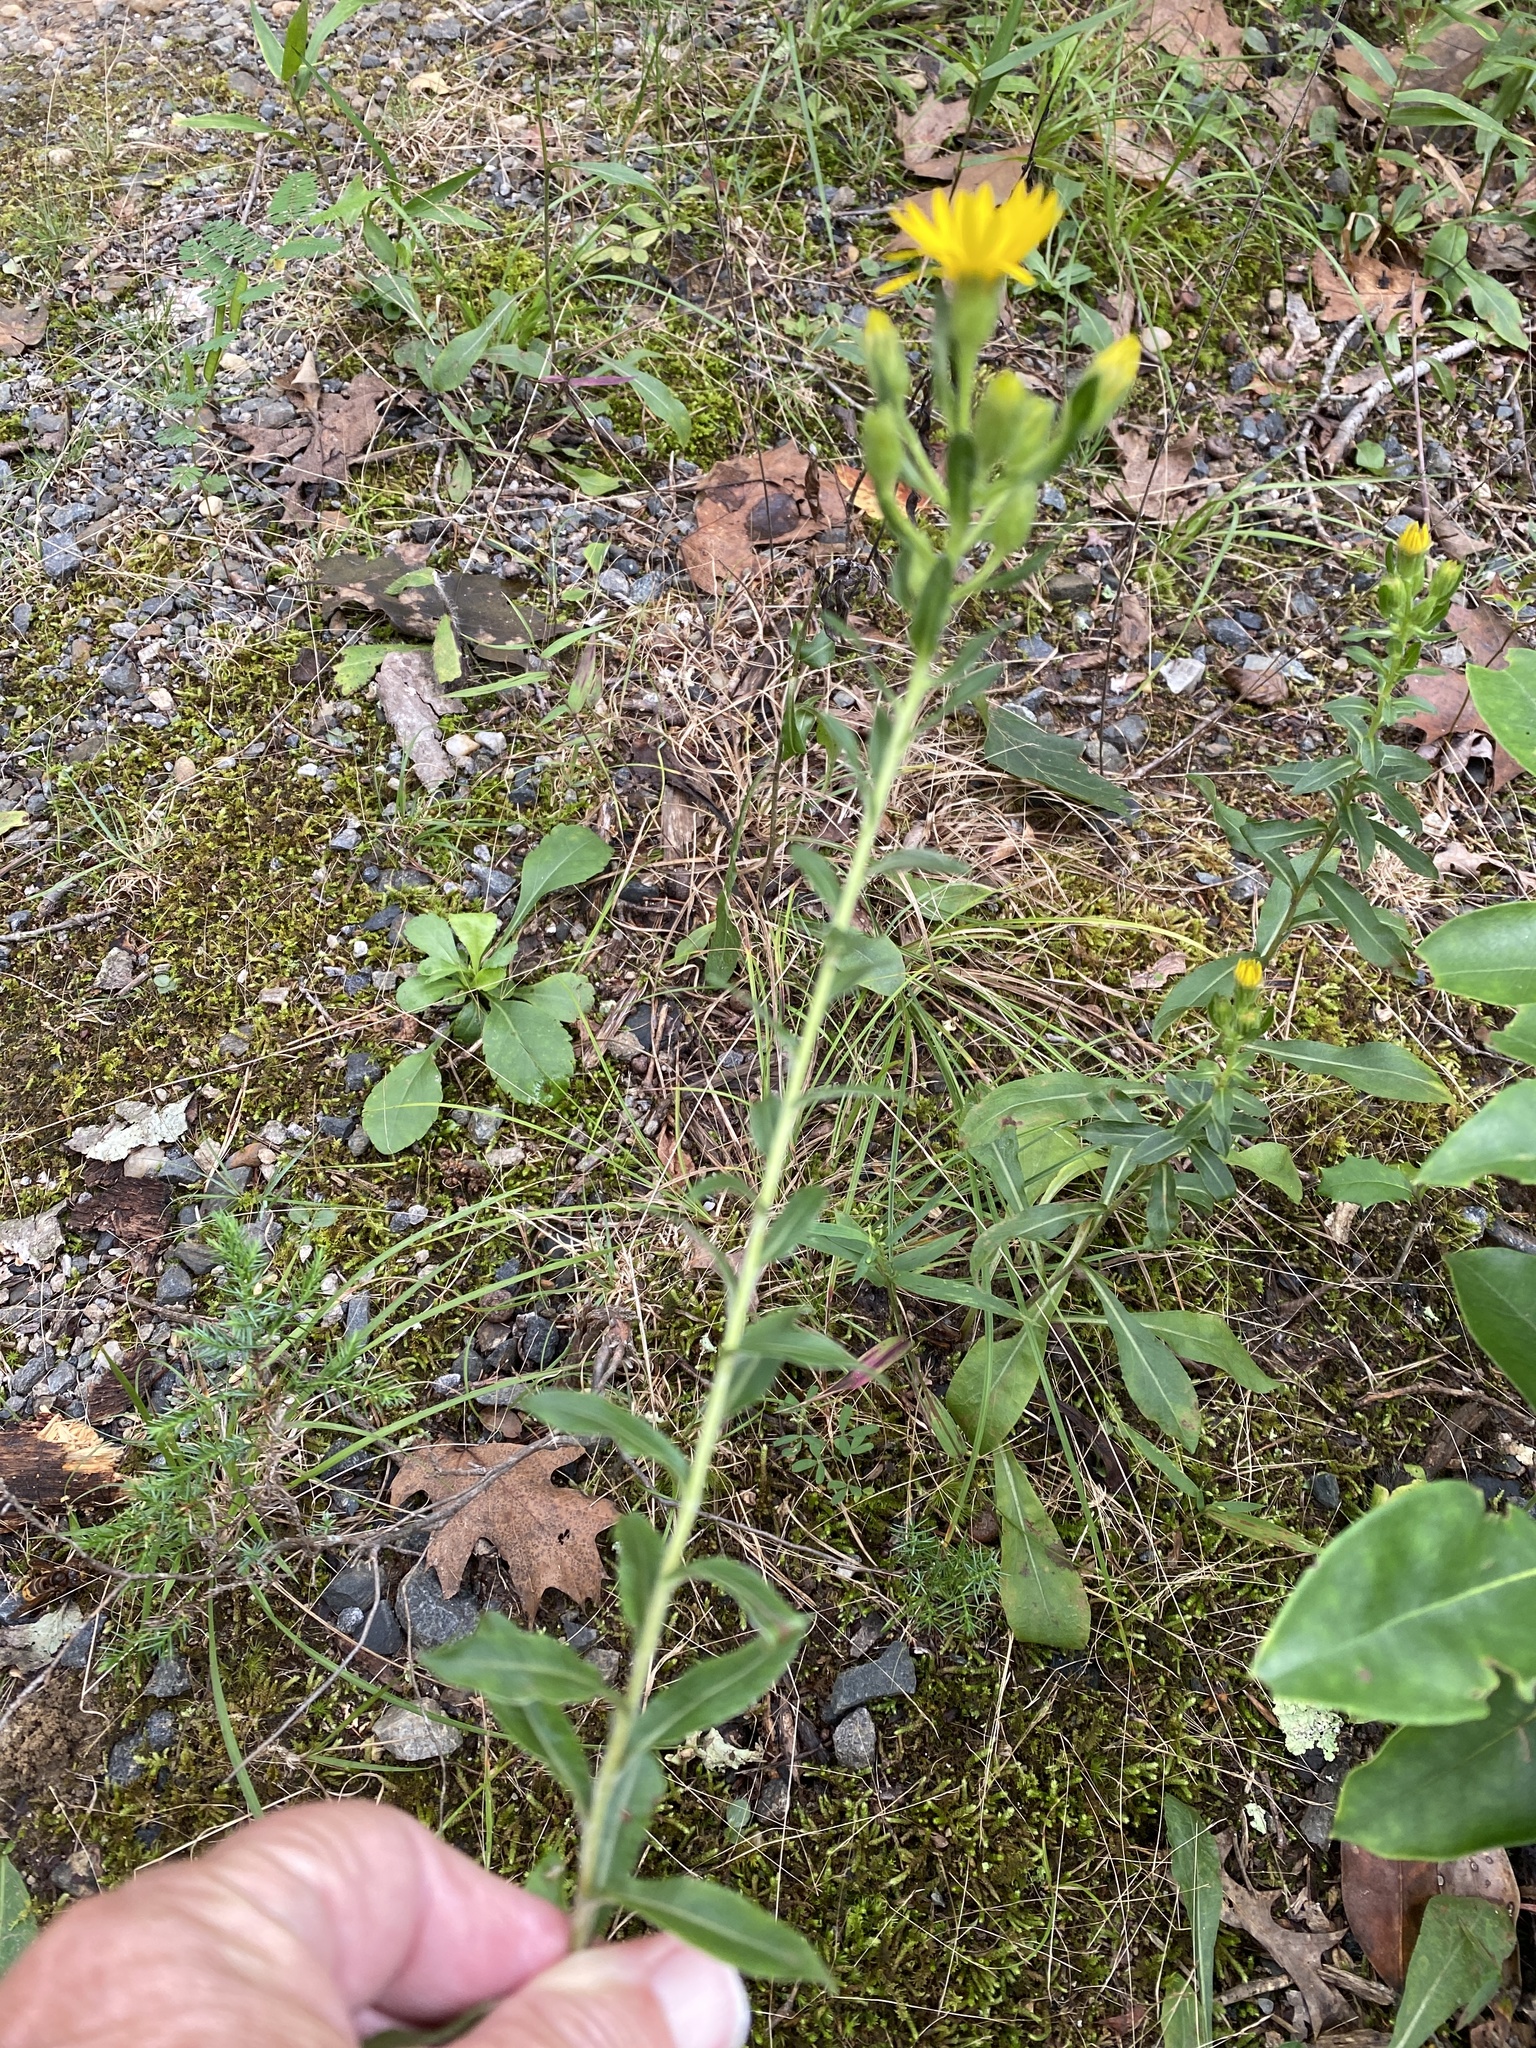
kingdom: Plantae
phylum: Tracheophyta
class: Magnoliopsida
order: Asterales
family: Asteraceae
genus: Chrysopsis
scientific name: Chrysopsis mariana
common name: Maryland golden-aster
